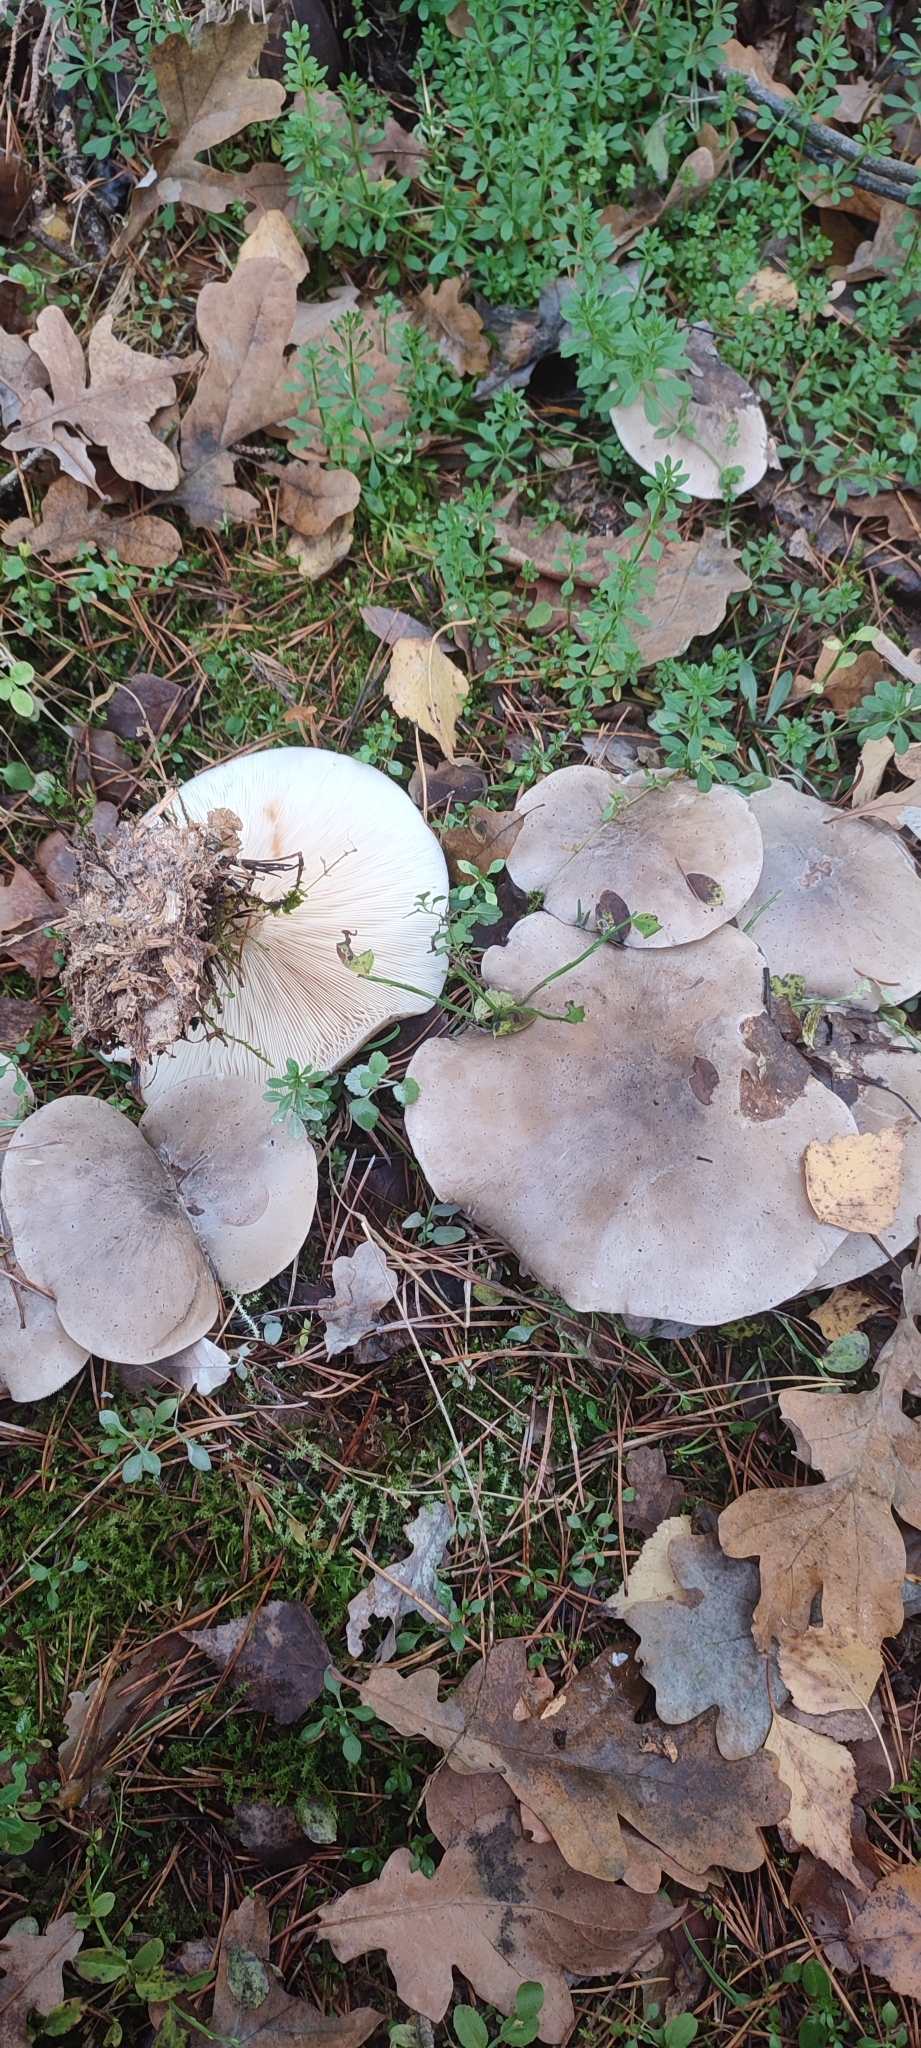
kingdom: Fungi
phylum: Basidiomycota
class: Agaricomycetes
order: Agaricales
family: Tricholomataceae
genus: Clitocybe
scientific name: Clitocybe nebularis
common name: Clouded agaric
